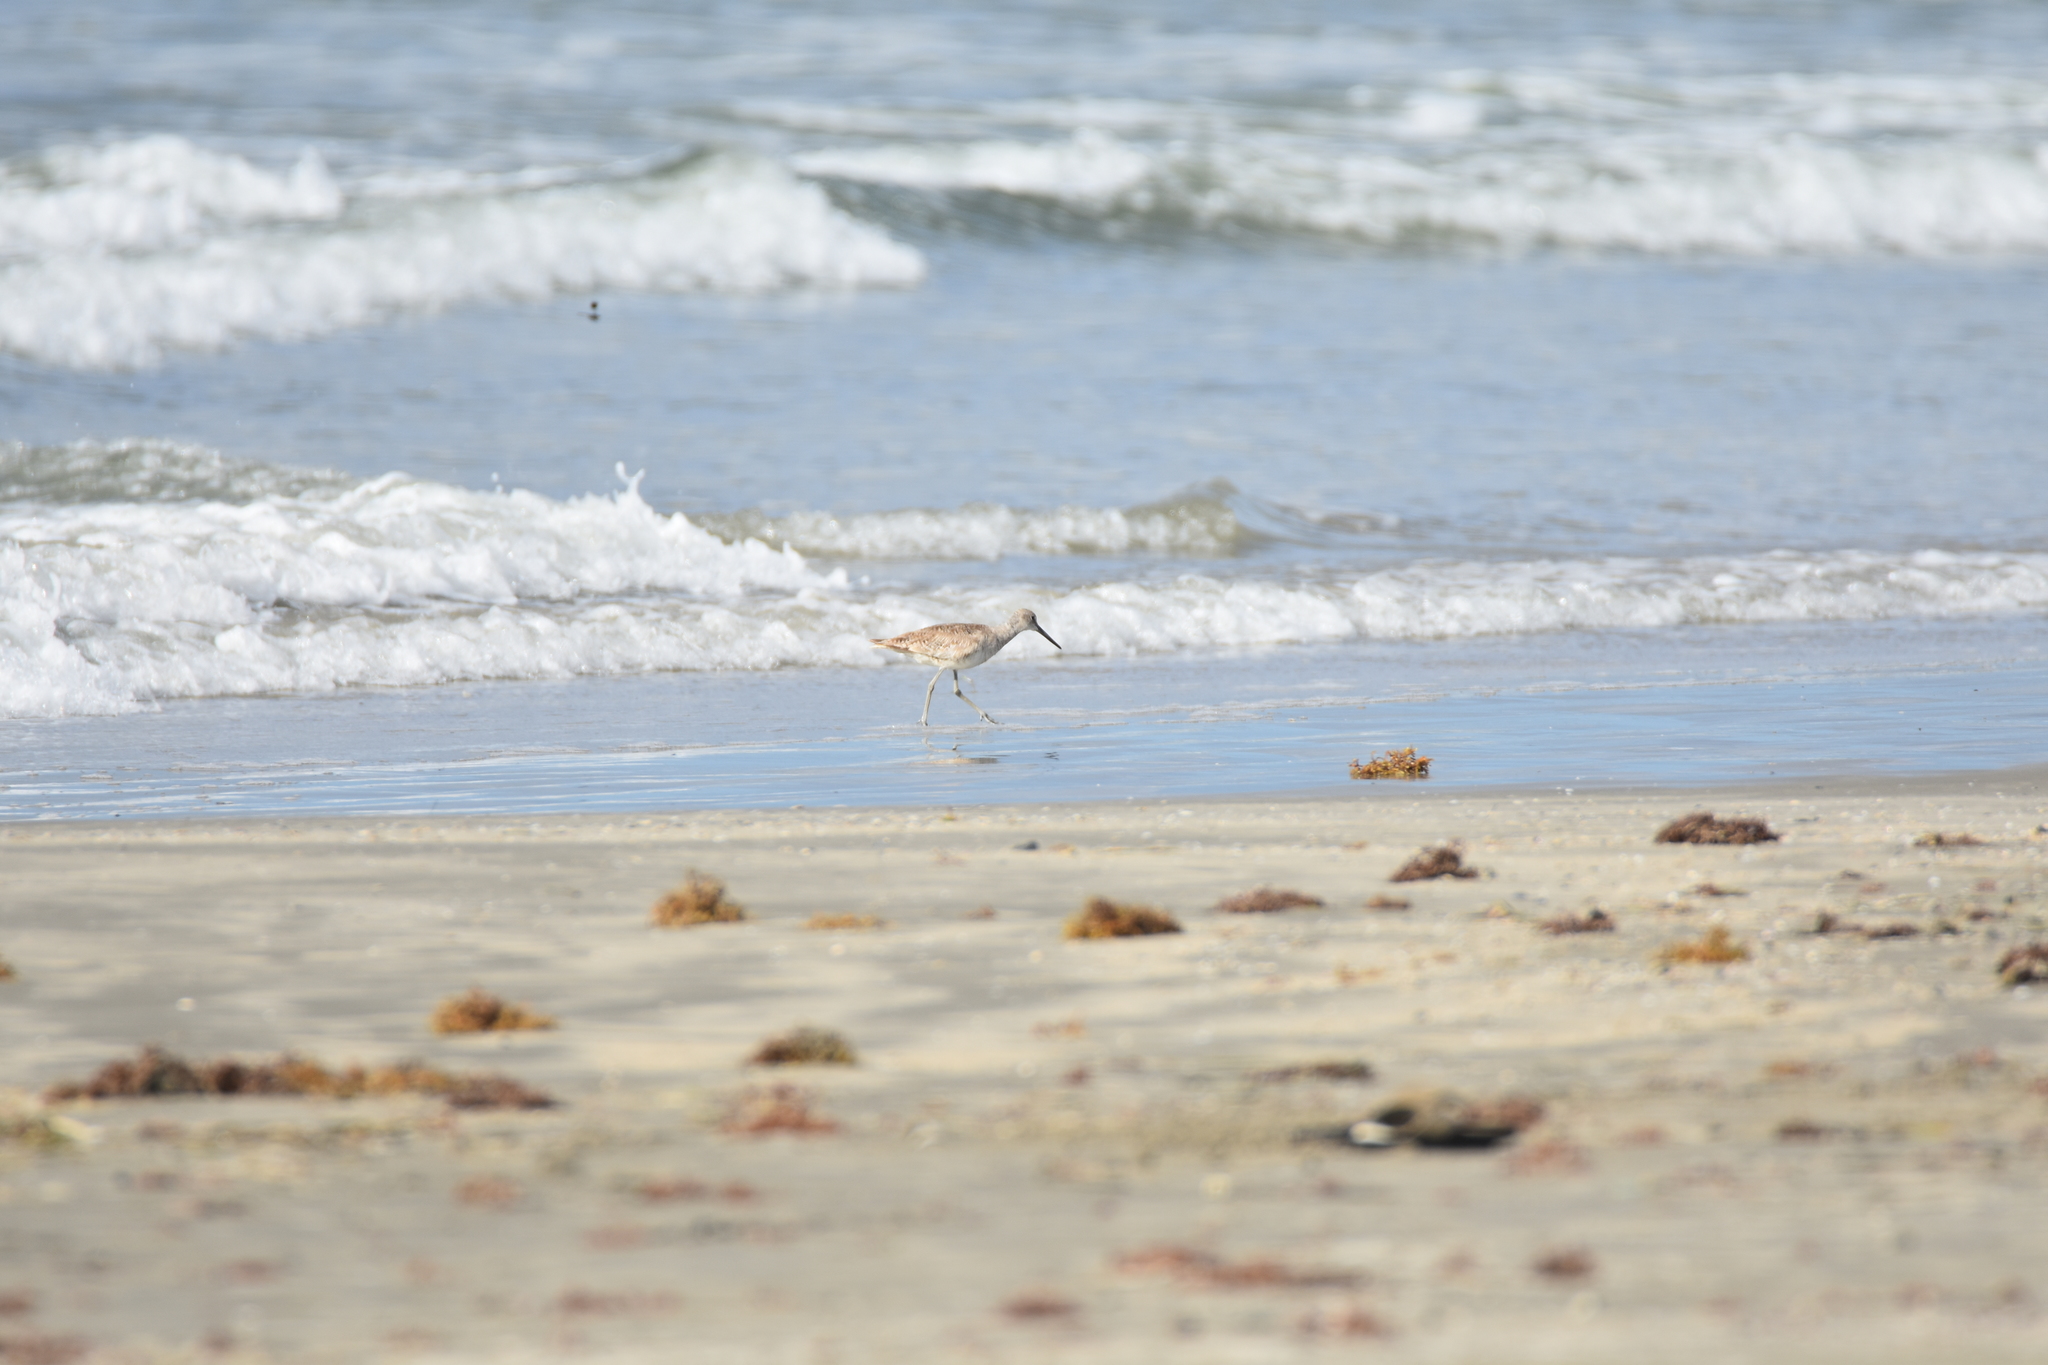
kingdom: Animalia
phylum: Chordata
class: Aves
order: Charadriiformes
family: Scolopacidae
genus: Tringa
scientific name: Tringa semipalmata
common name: Willet
